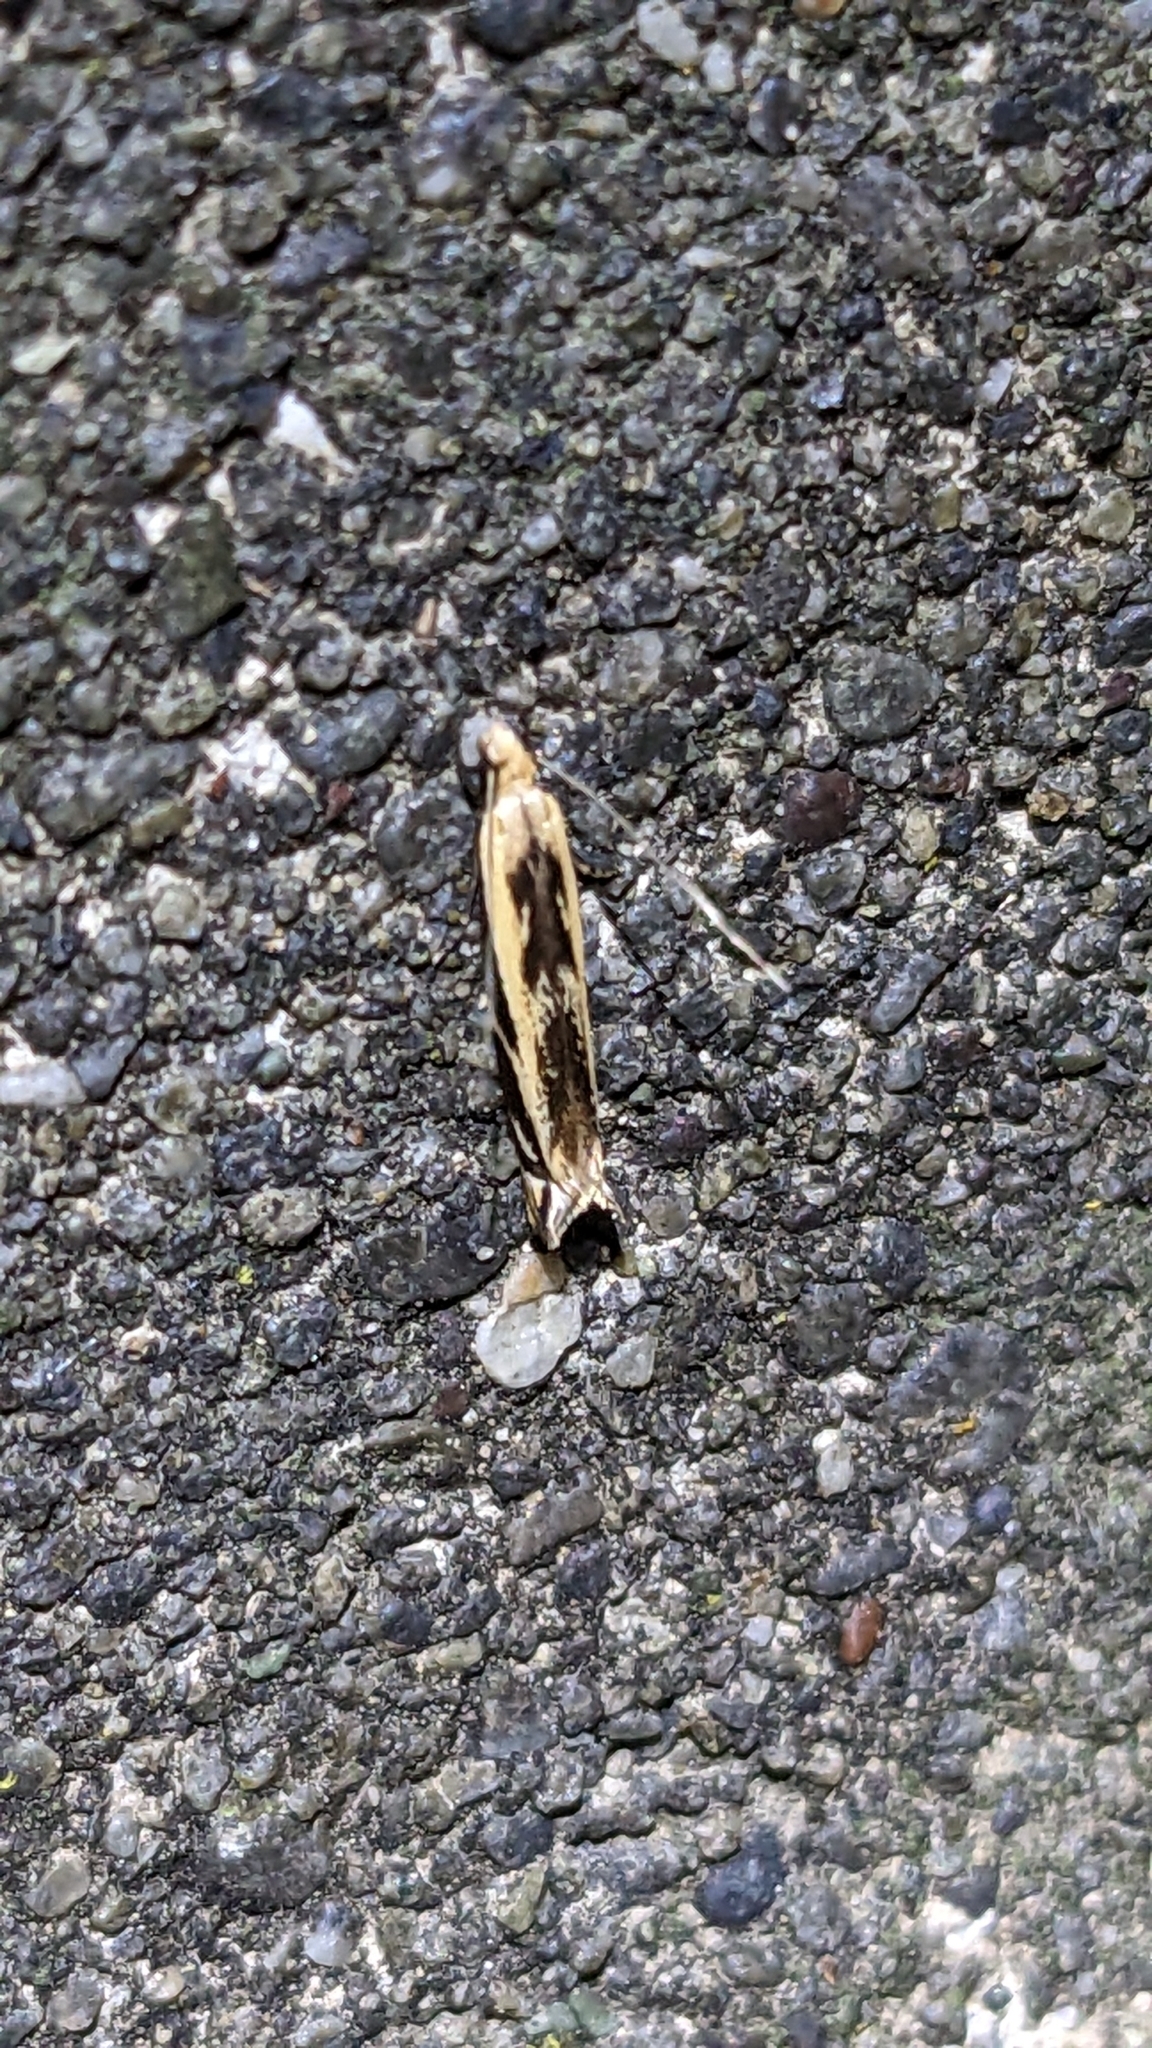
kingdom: Animalia
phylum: Arthropoda
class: Insecta
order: Lepidoptera
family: Tineidae
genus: Erechthias
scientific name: Erechthias terminella
